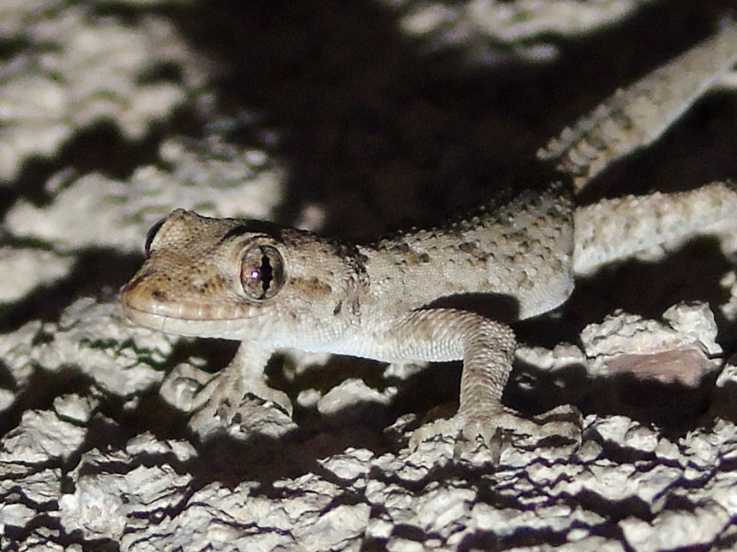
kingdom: Animalia
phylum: Chordata
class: Squamata
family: Gekkonidae
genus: Mediodactylus
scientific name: Mediodactylus kotschyi
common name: Kotschy's gecko
